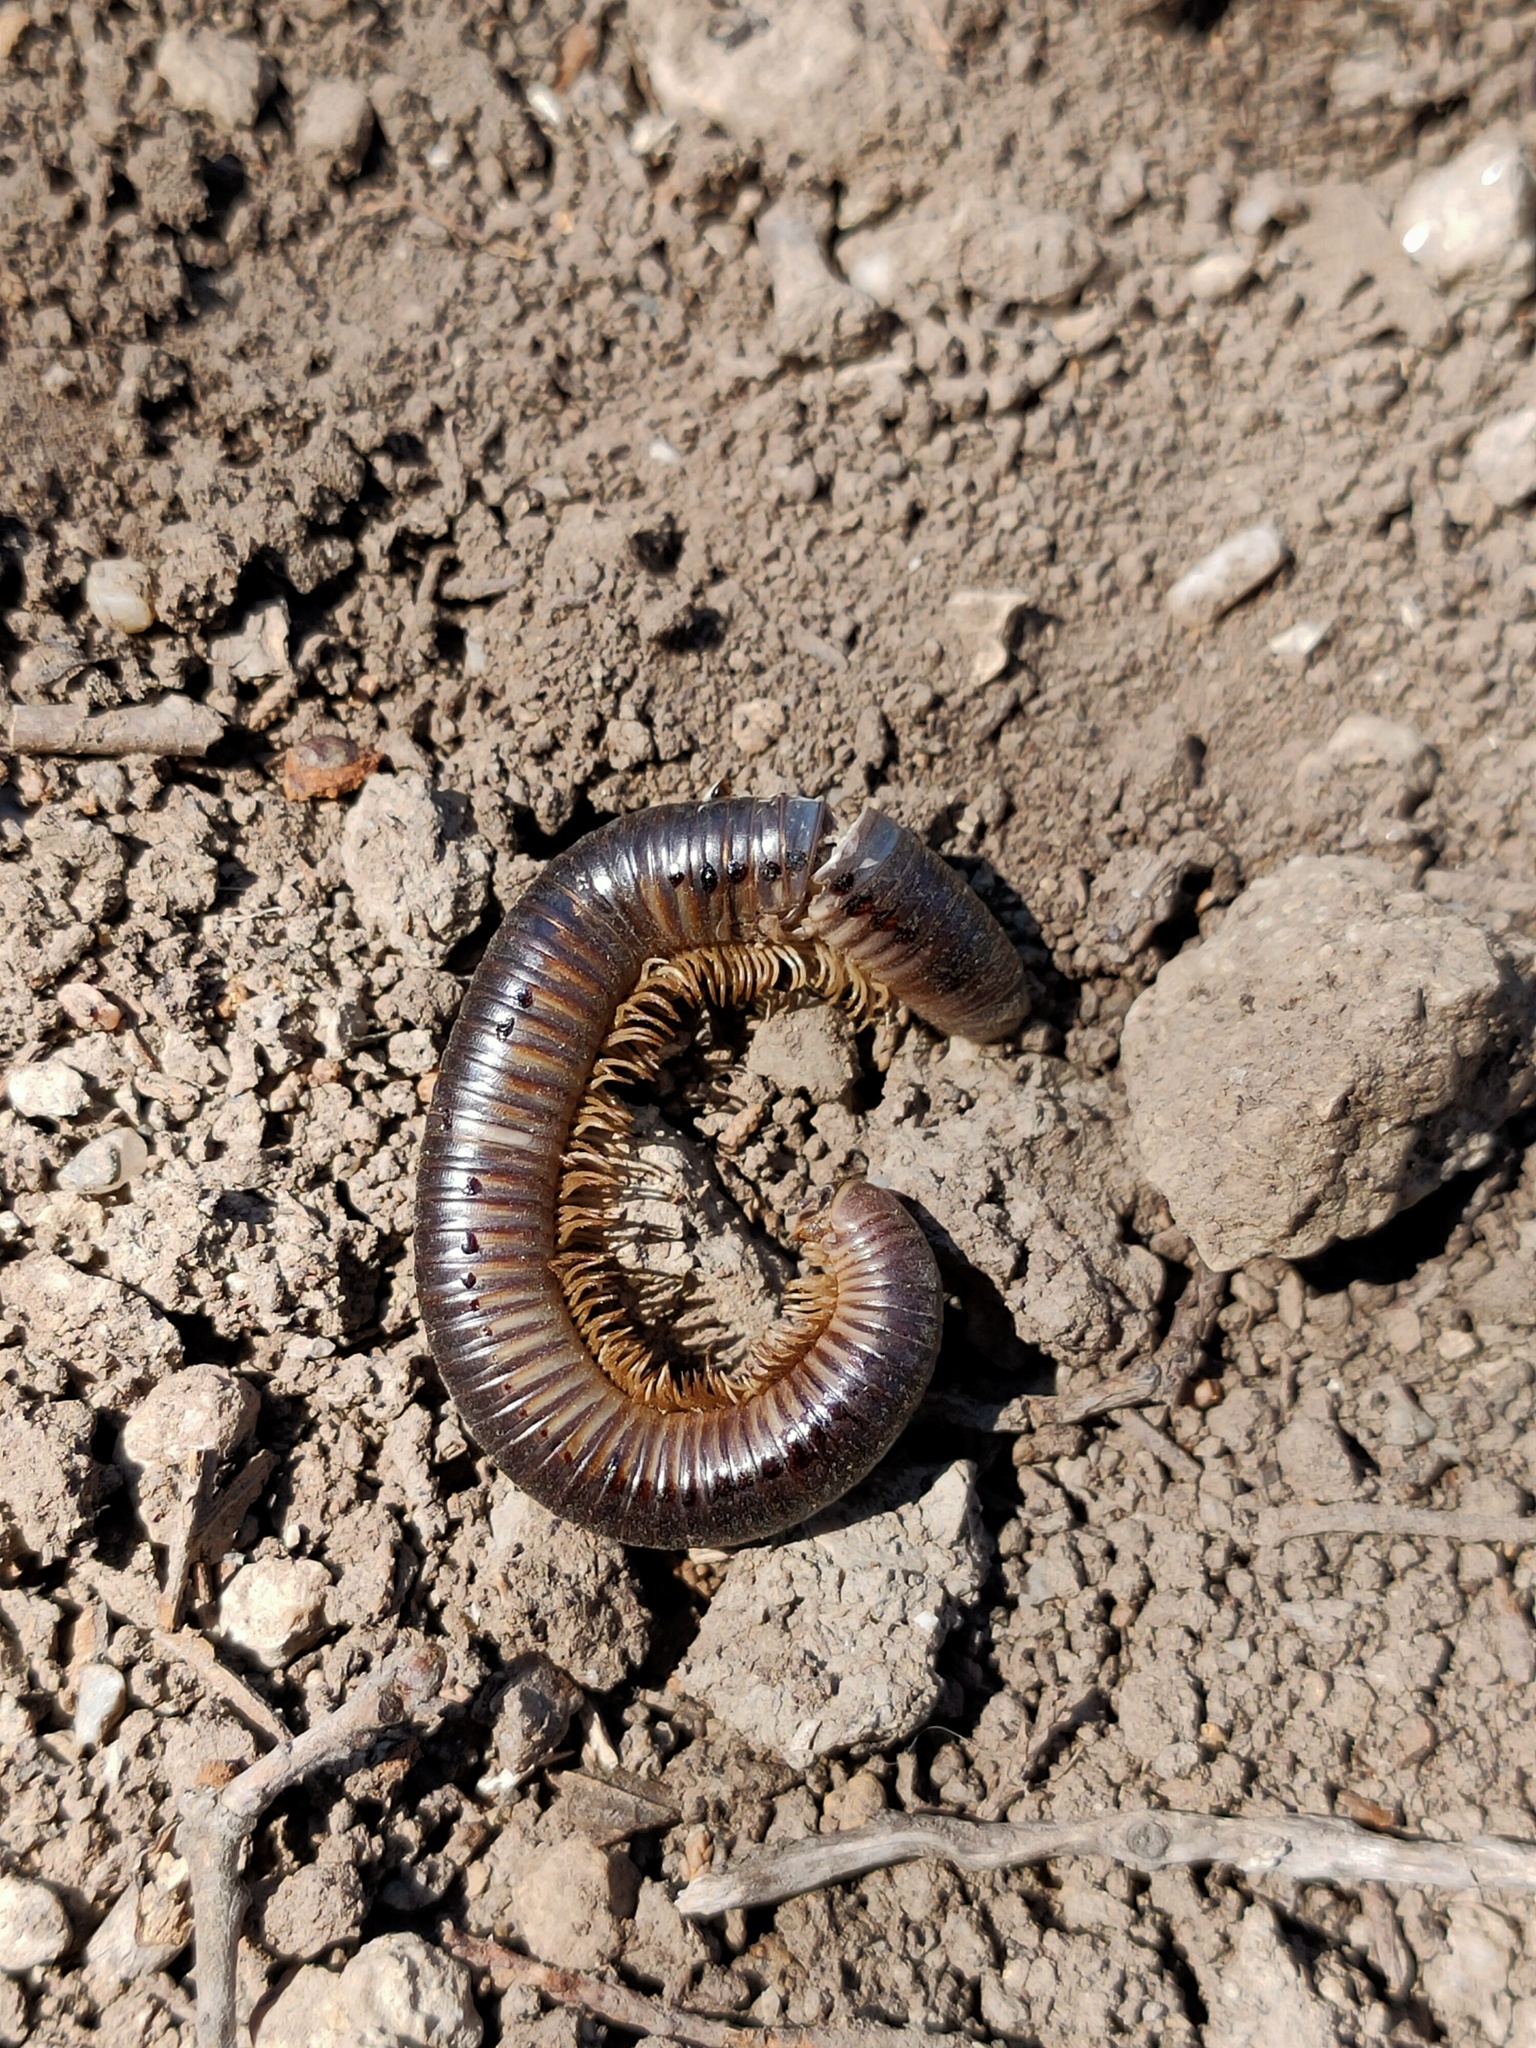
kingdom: Animalia
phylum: Arthropoda
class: Diplopoda
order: Julida
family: Julidae
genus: Pachyiulus
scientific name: Pachyiulus flavipes
